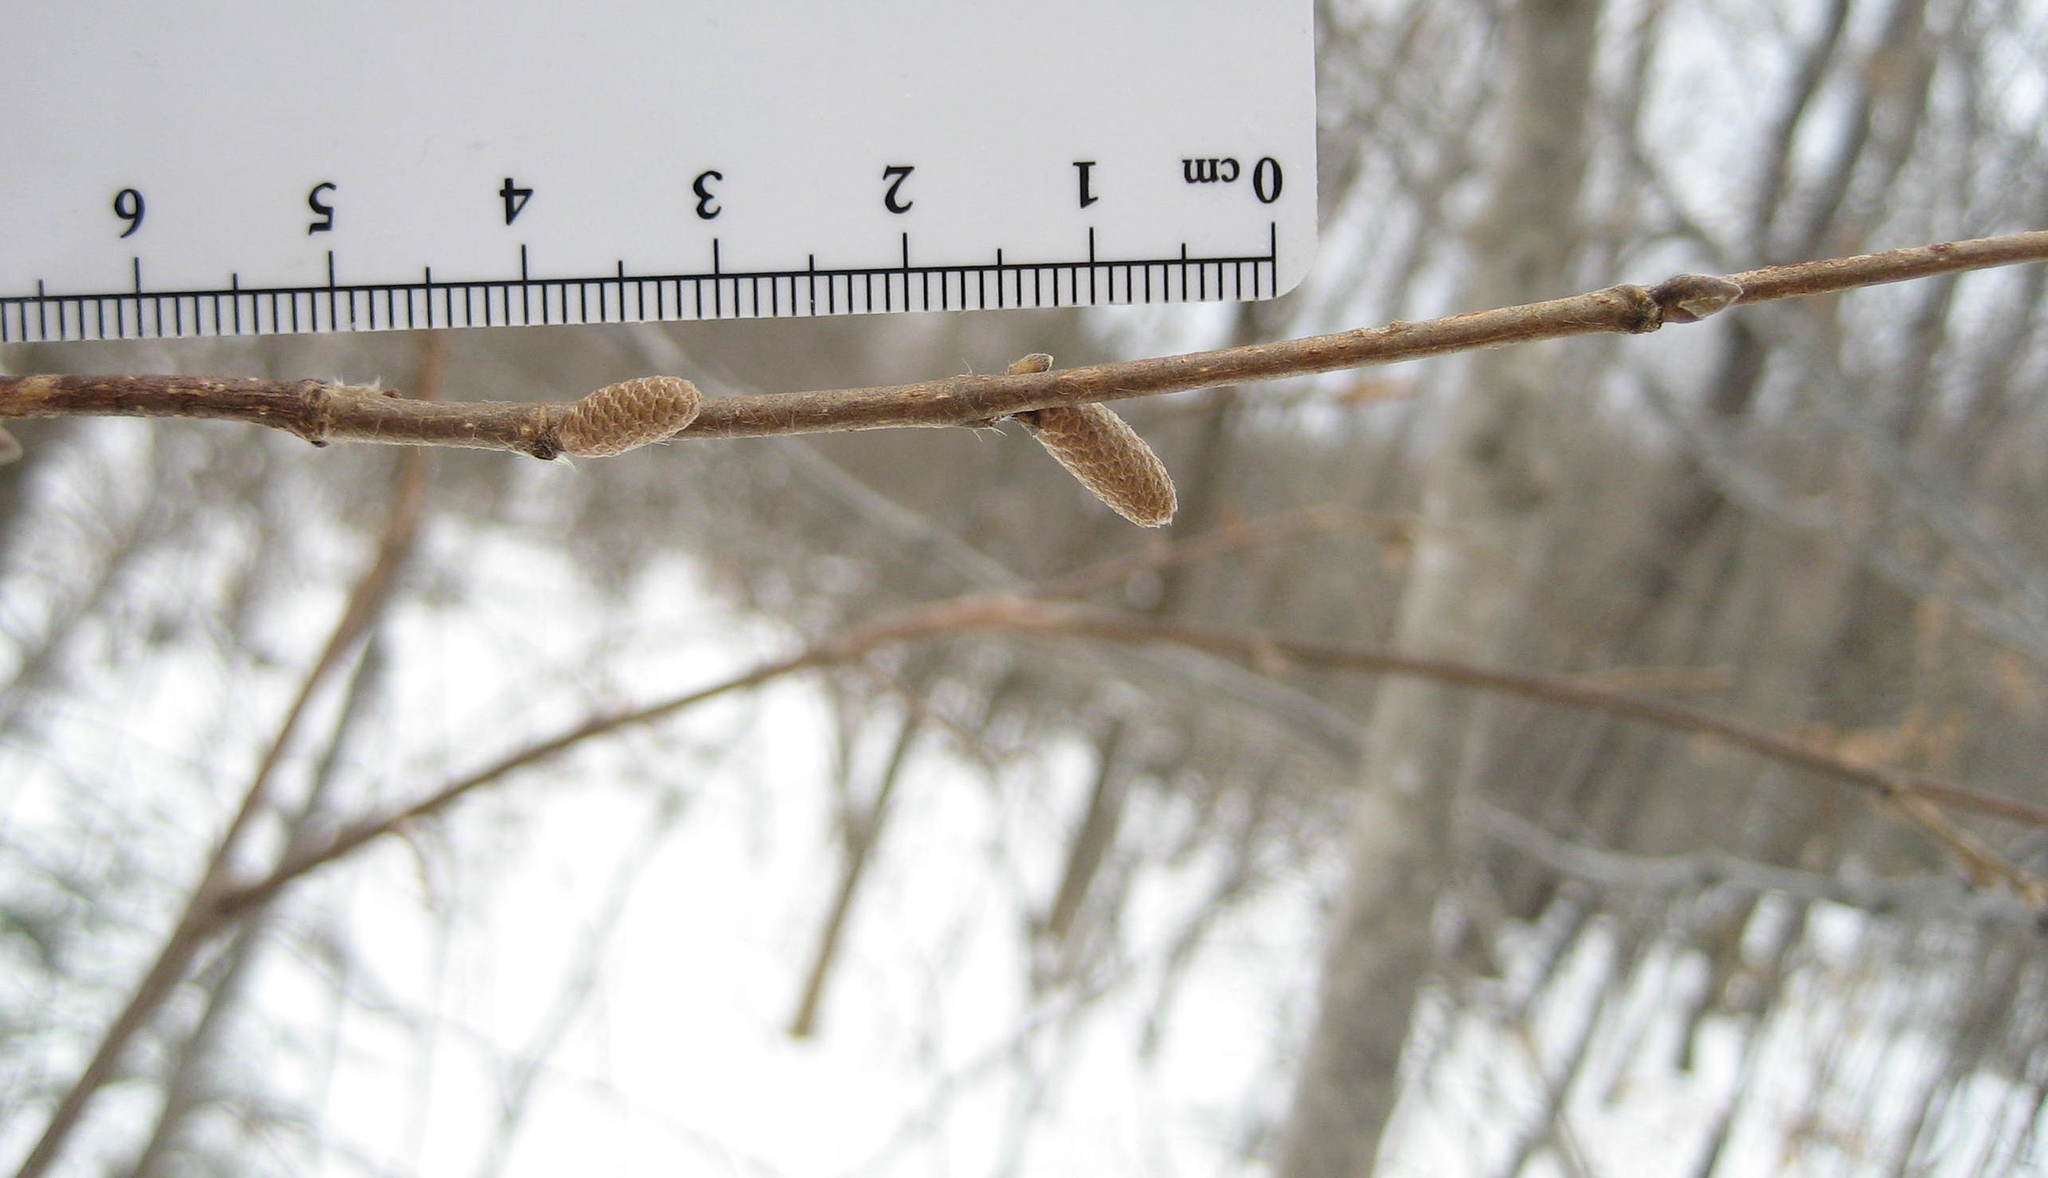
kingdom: Plantae
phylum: Tracheophyta
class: Magnoliopsida
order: Fagales
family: Betulaceae
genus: Corylus
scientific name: Corylus cornuta
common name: Beaked hazel
